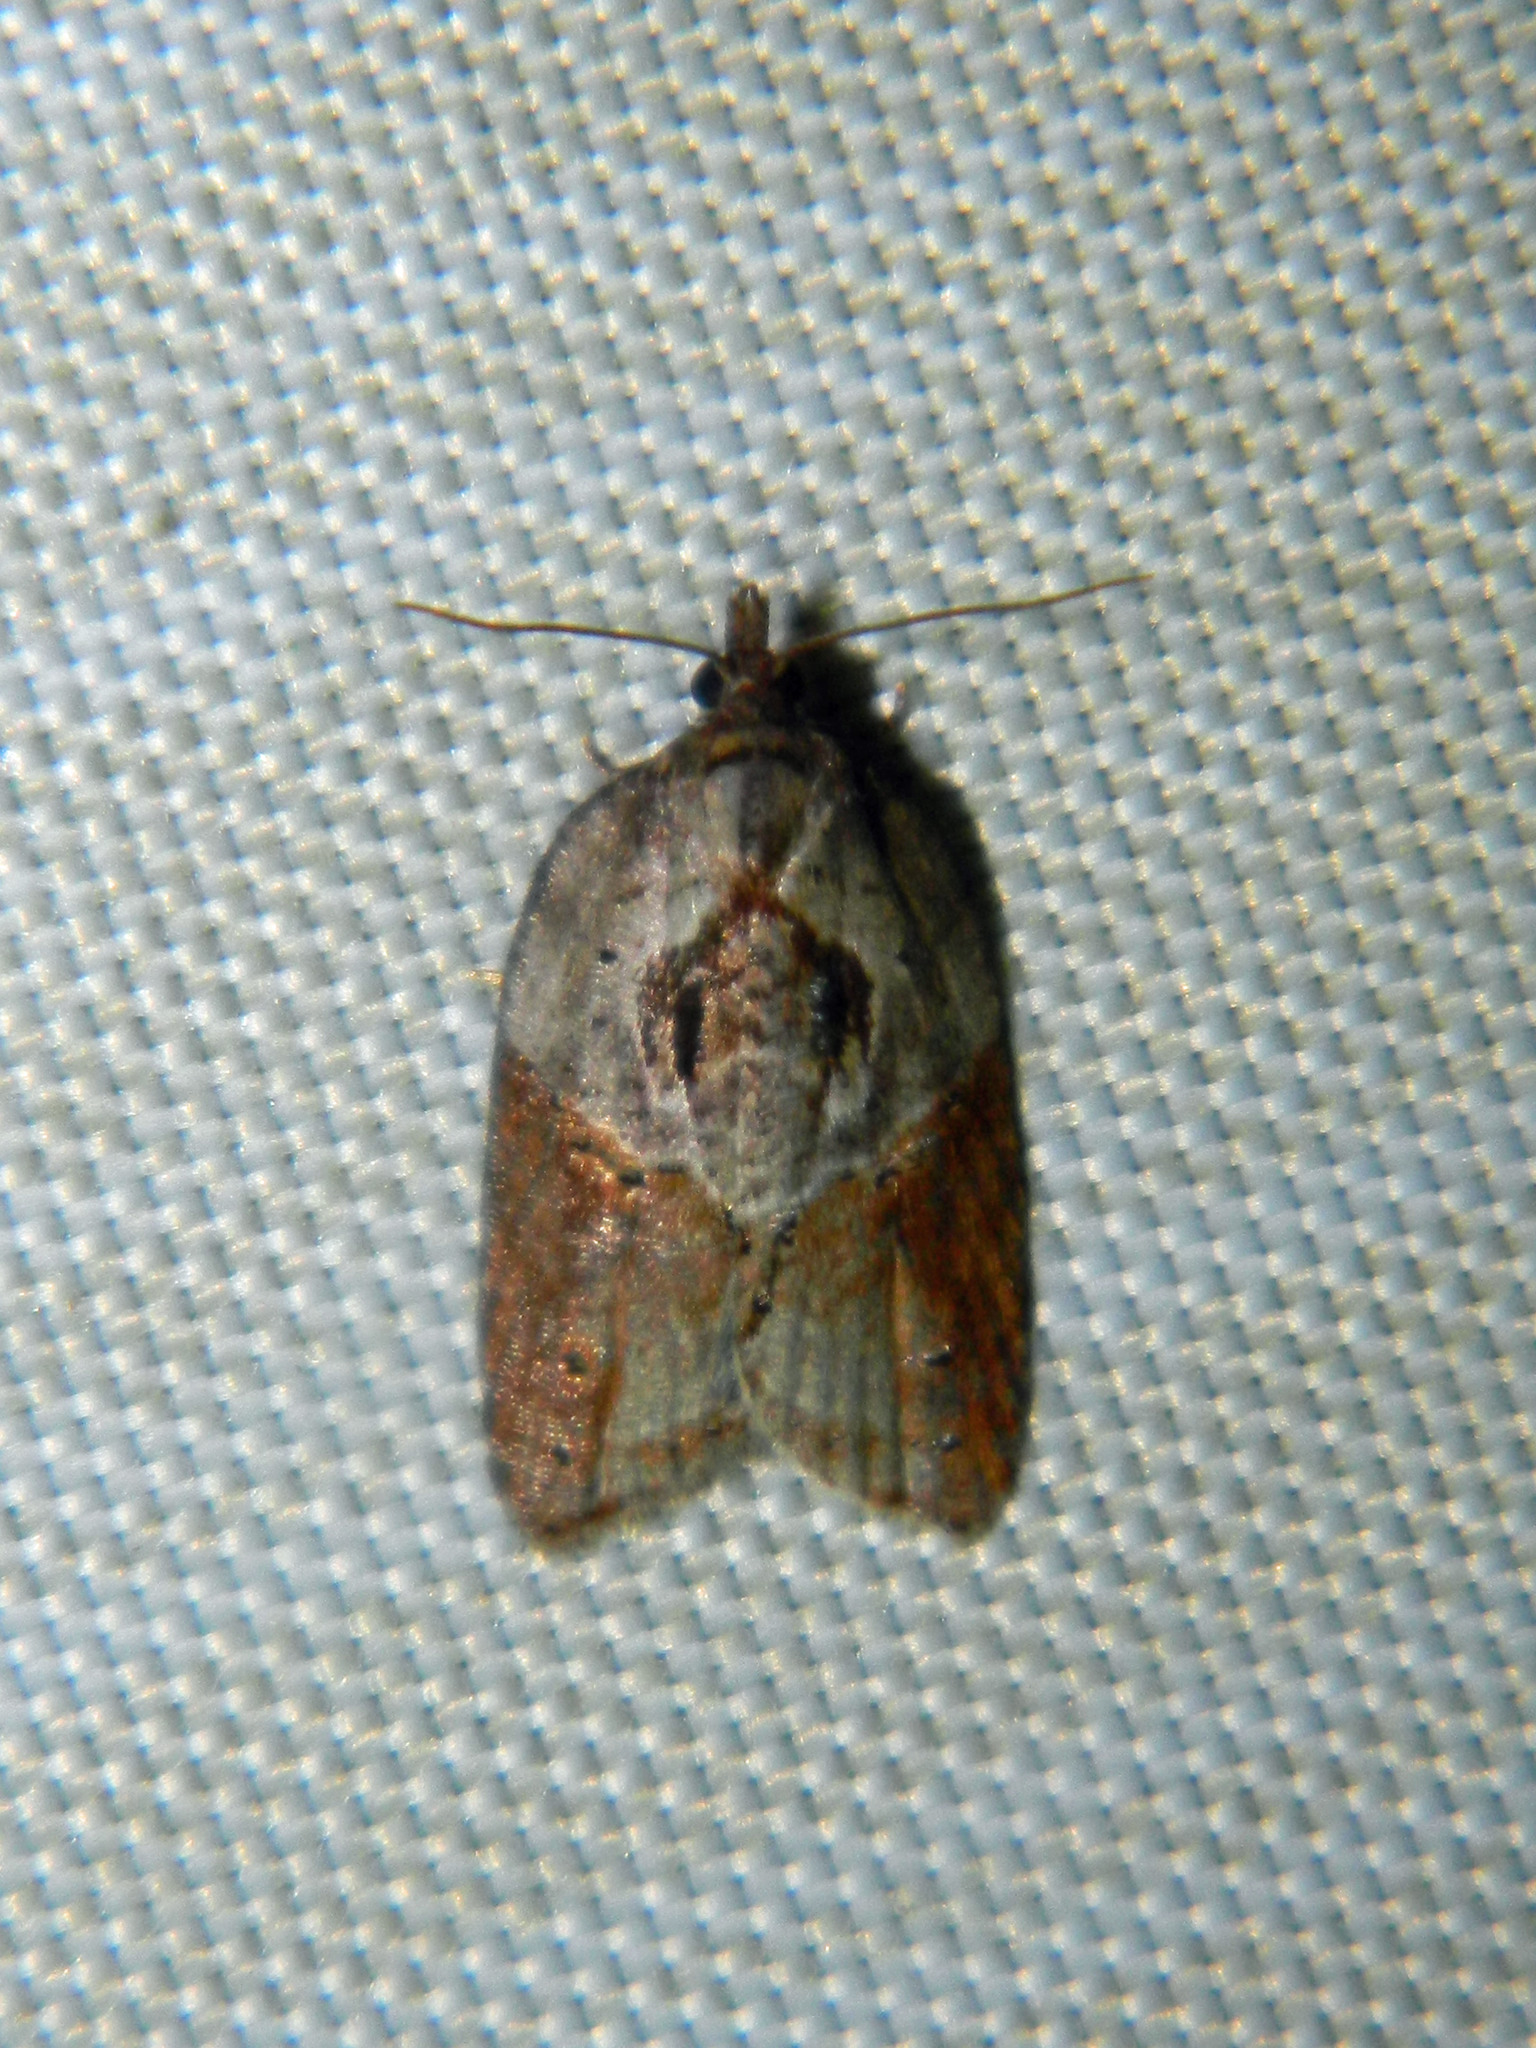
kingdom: Animalia
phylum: Arthropoda
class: Insecta
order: Lepidoptera
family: Tortricidae
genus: Acleris
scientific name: Acleris inana
